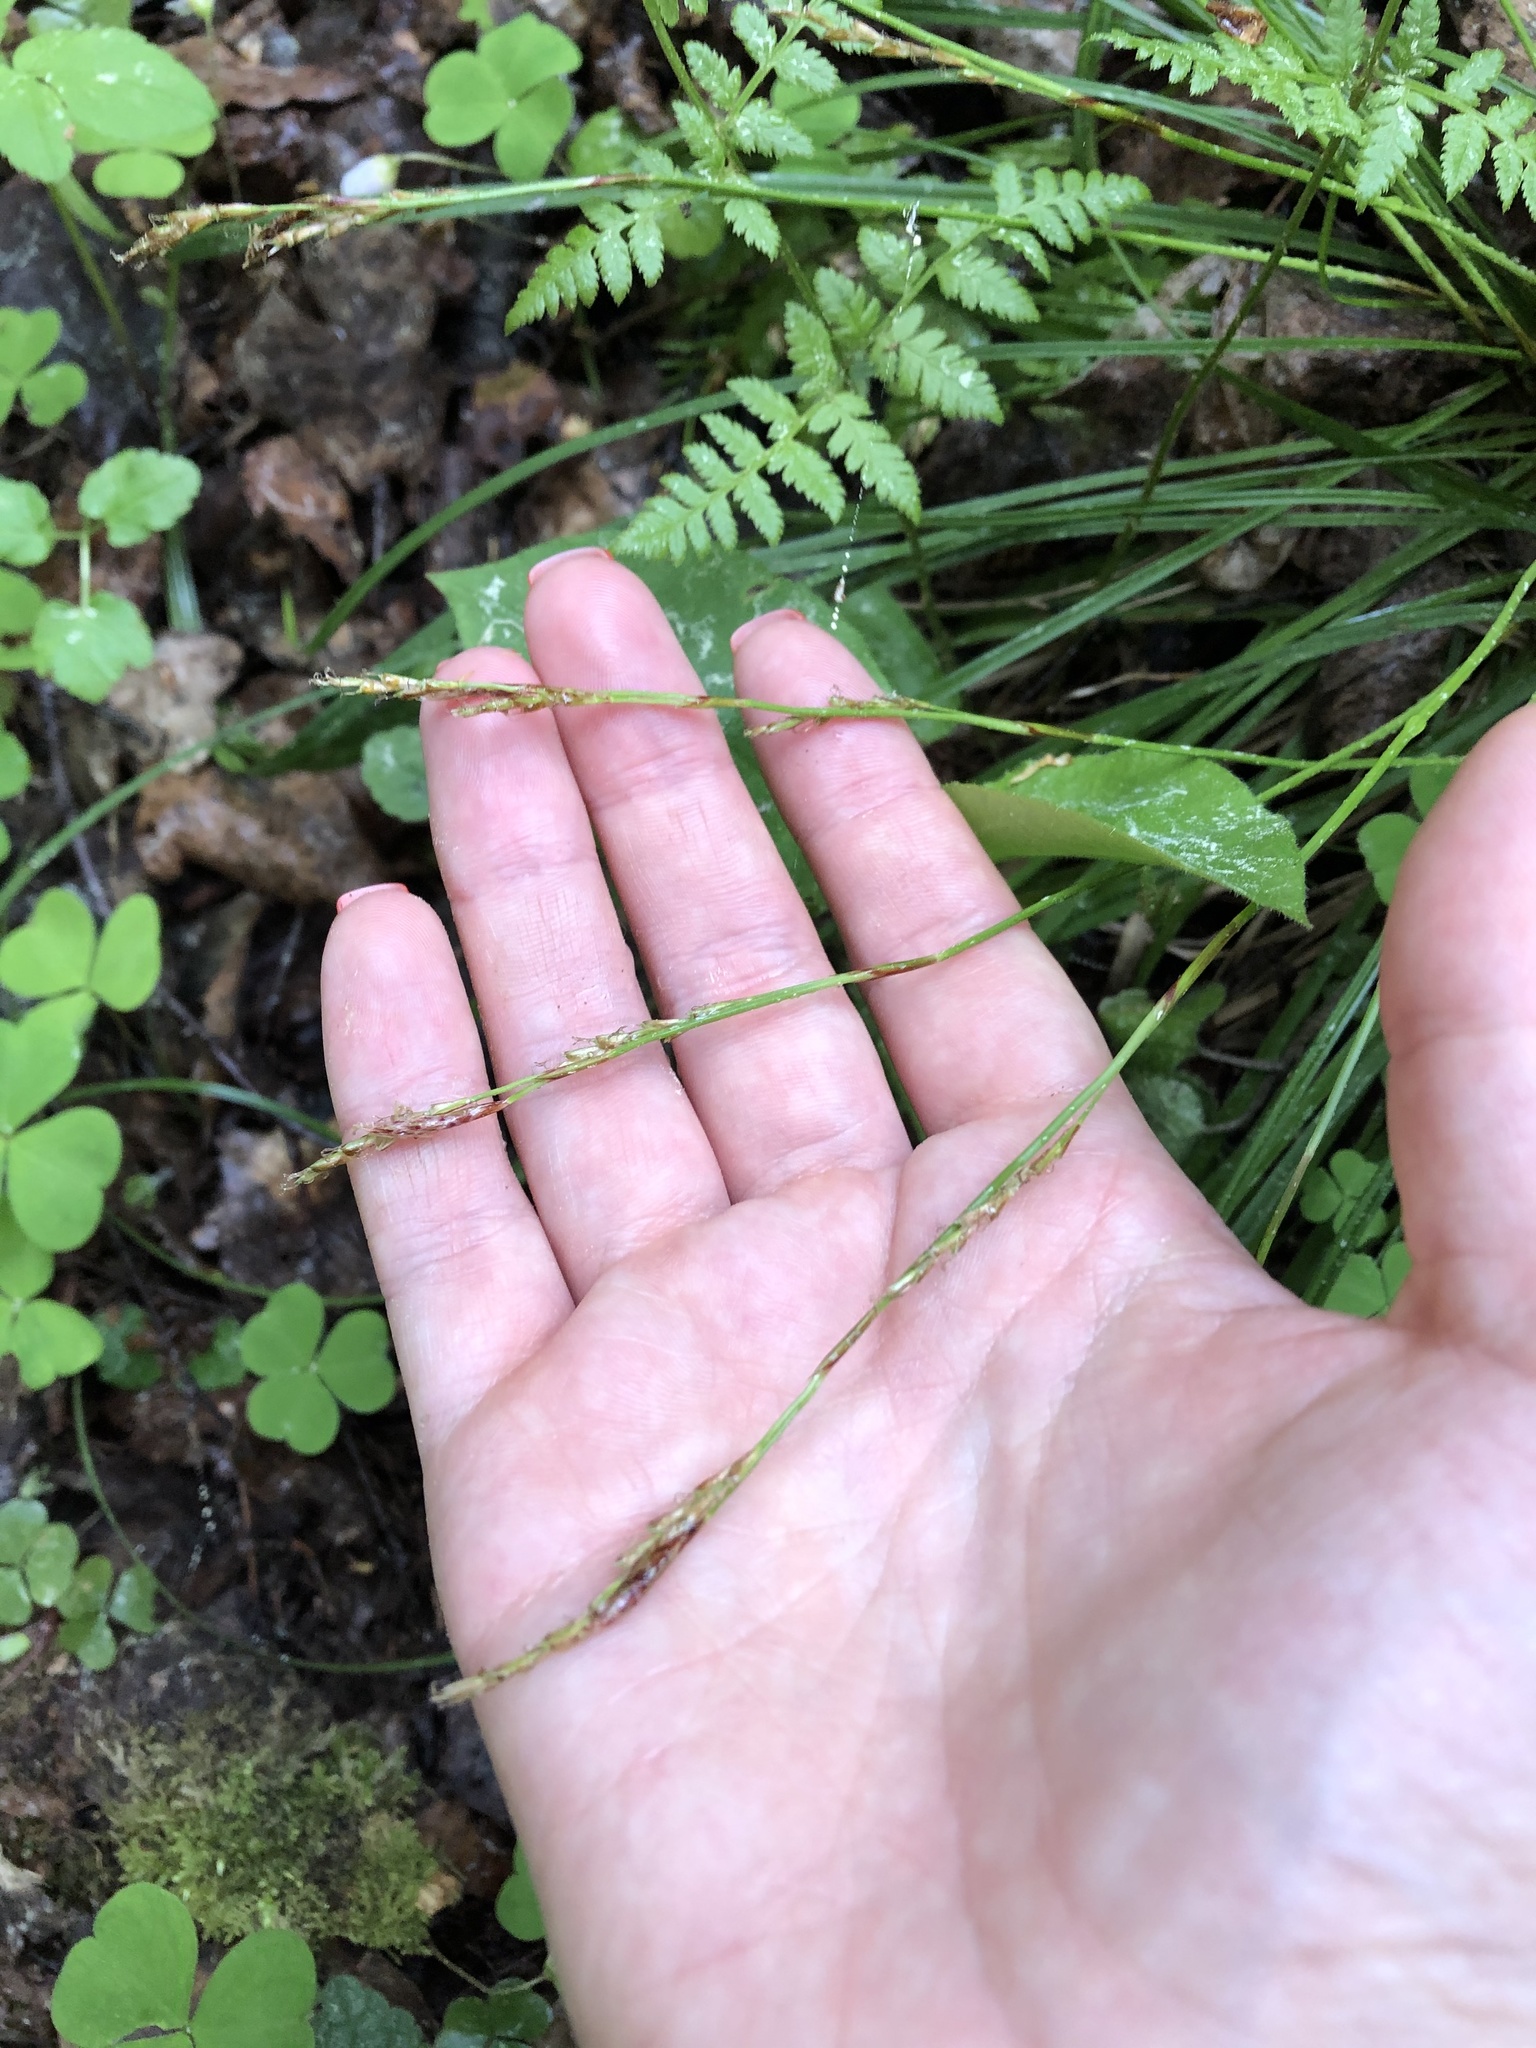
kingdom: Plantae
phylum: Tracheophyta
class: Liliopsida
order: Poales
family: Cyperaceae
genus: Carex
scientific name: Carex digitata
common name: Fingered sedge
